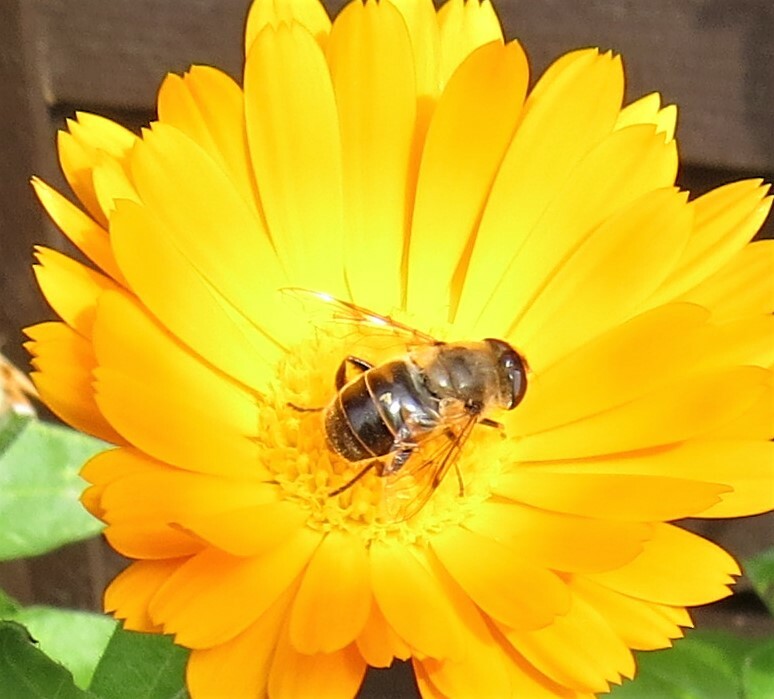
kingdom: Animalia
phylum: Arthropoda
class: Insecta
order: Diptera
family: Syrphidae
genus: Eristalis
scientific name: Eristalis tenax
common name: Drone fly
